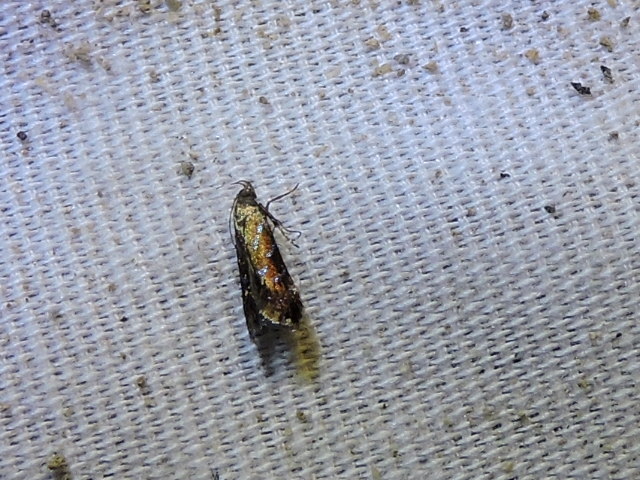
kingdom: Animalia
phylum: Arthropoda
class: Insecta
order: Lepidoptera
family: Gelechiidae
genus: Strobisia
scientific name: Strobisia proserpinella
